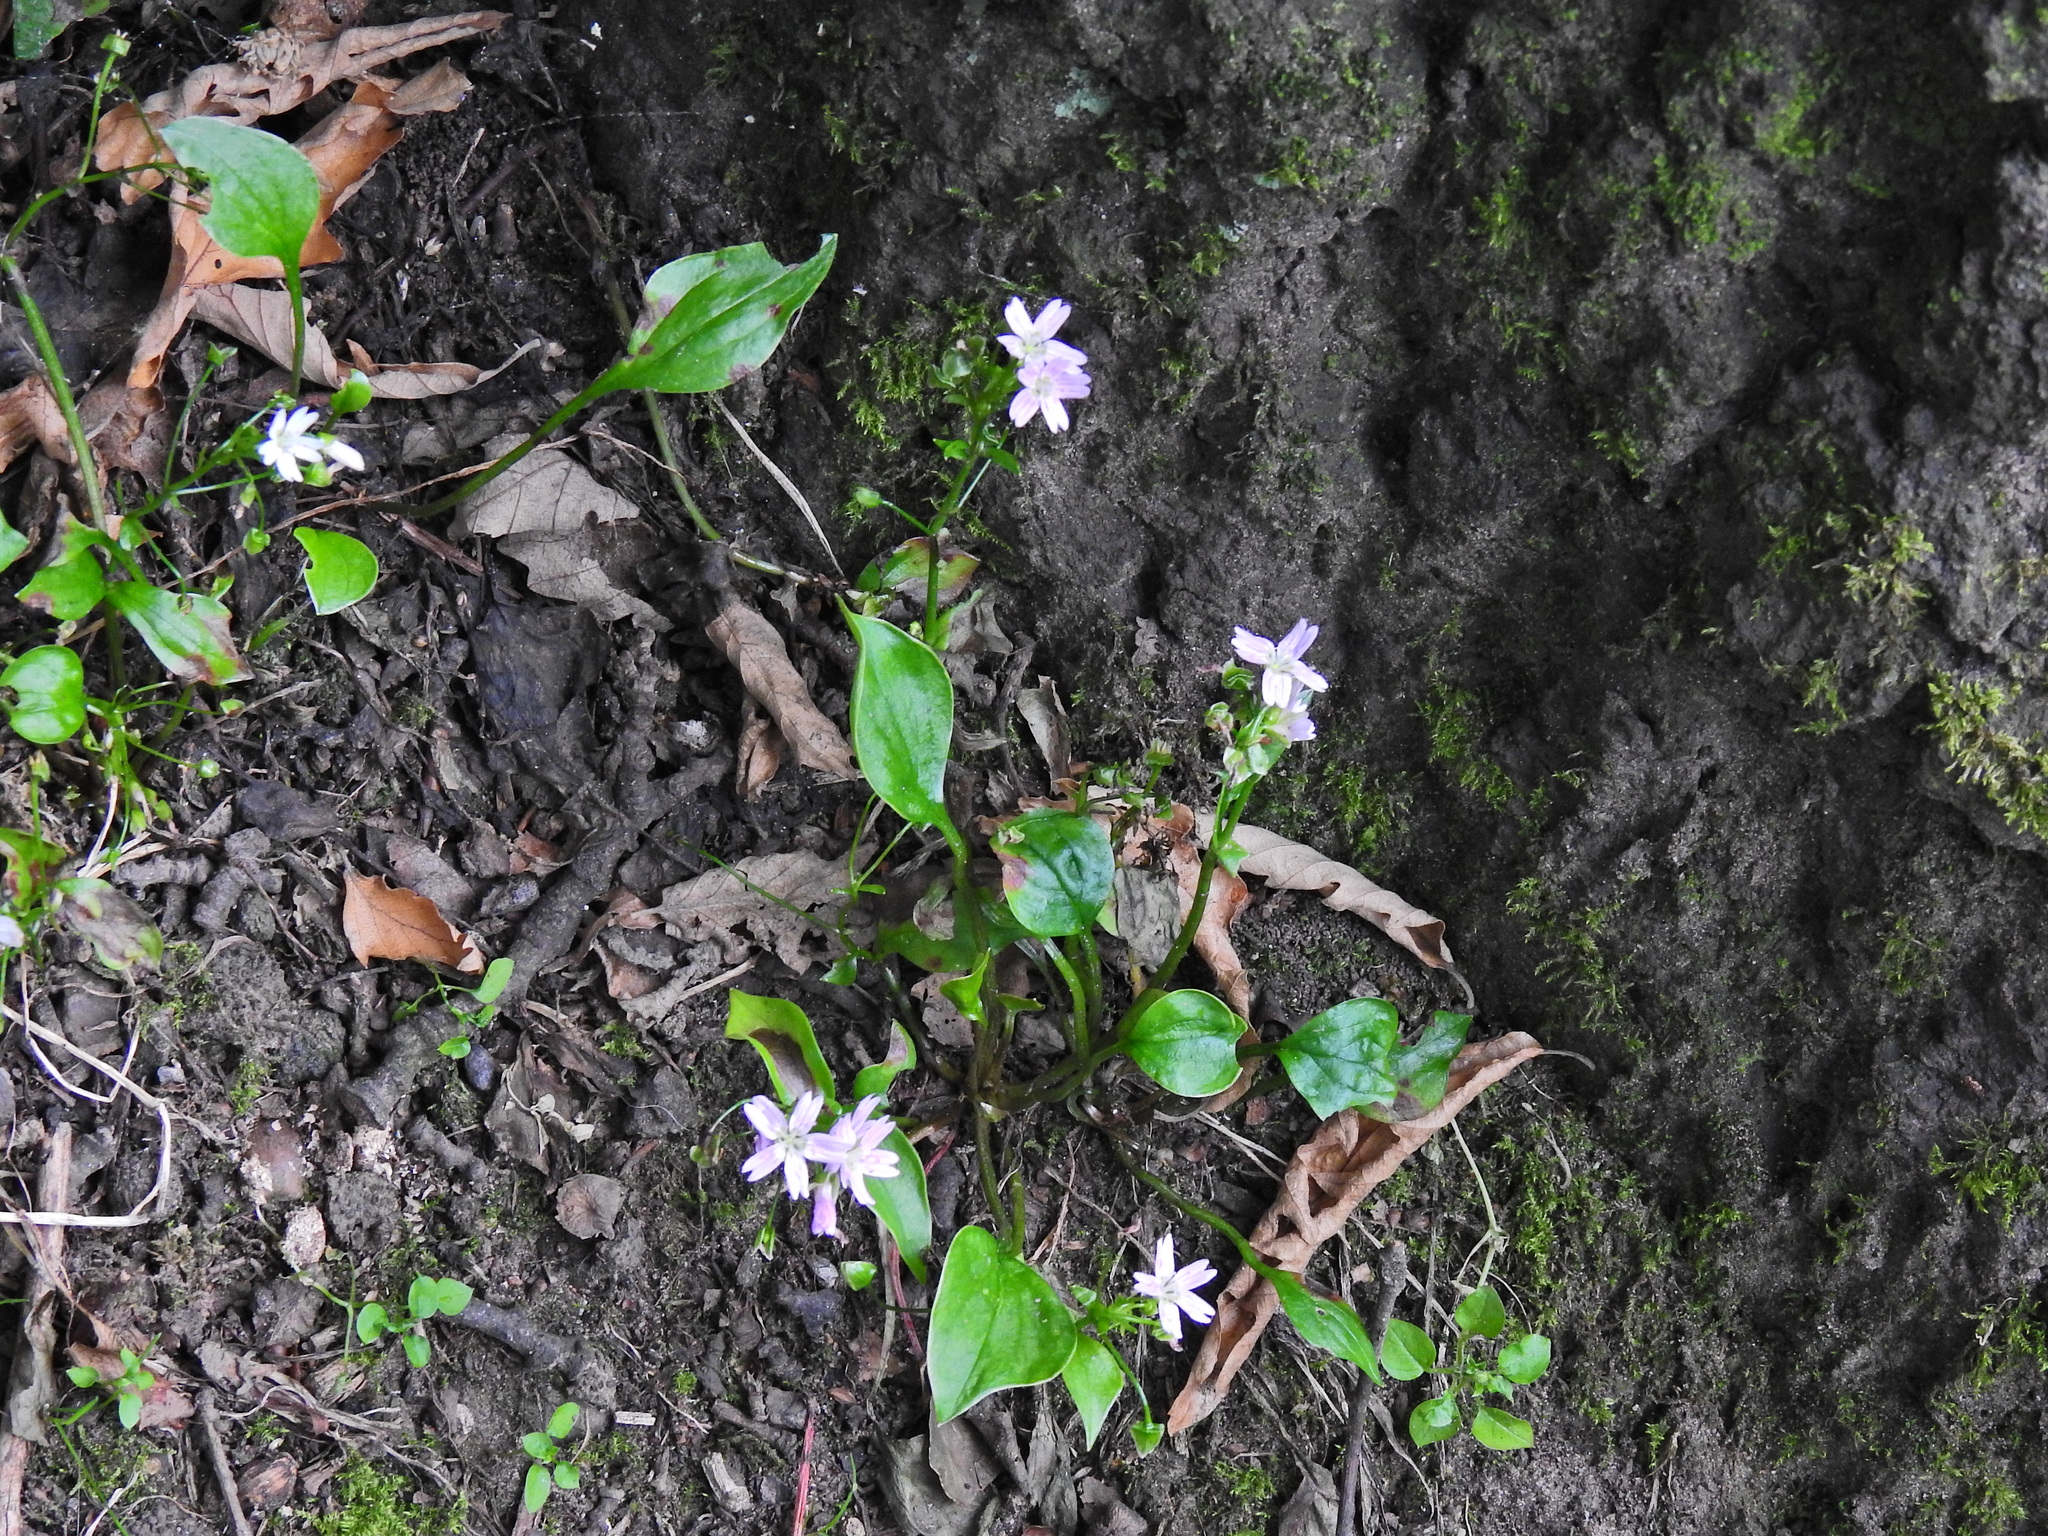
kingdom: Plantae
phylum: Tracheophyta
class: Magnoliopsida
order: Caryophyllales
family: Montiaceae
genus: Claytonia
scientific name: Claytonia sibirica
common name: Pink purslane
